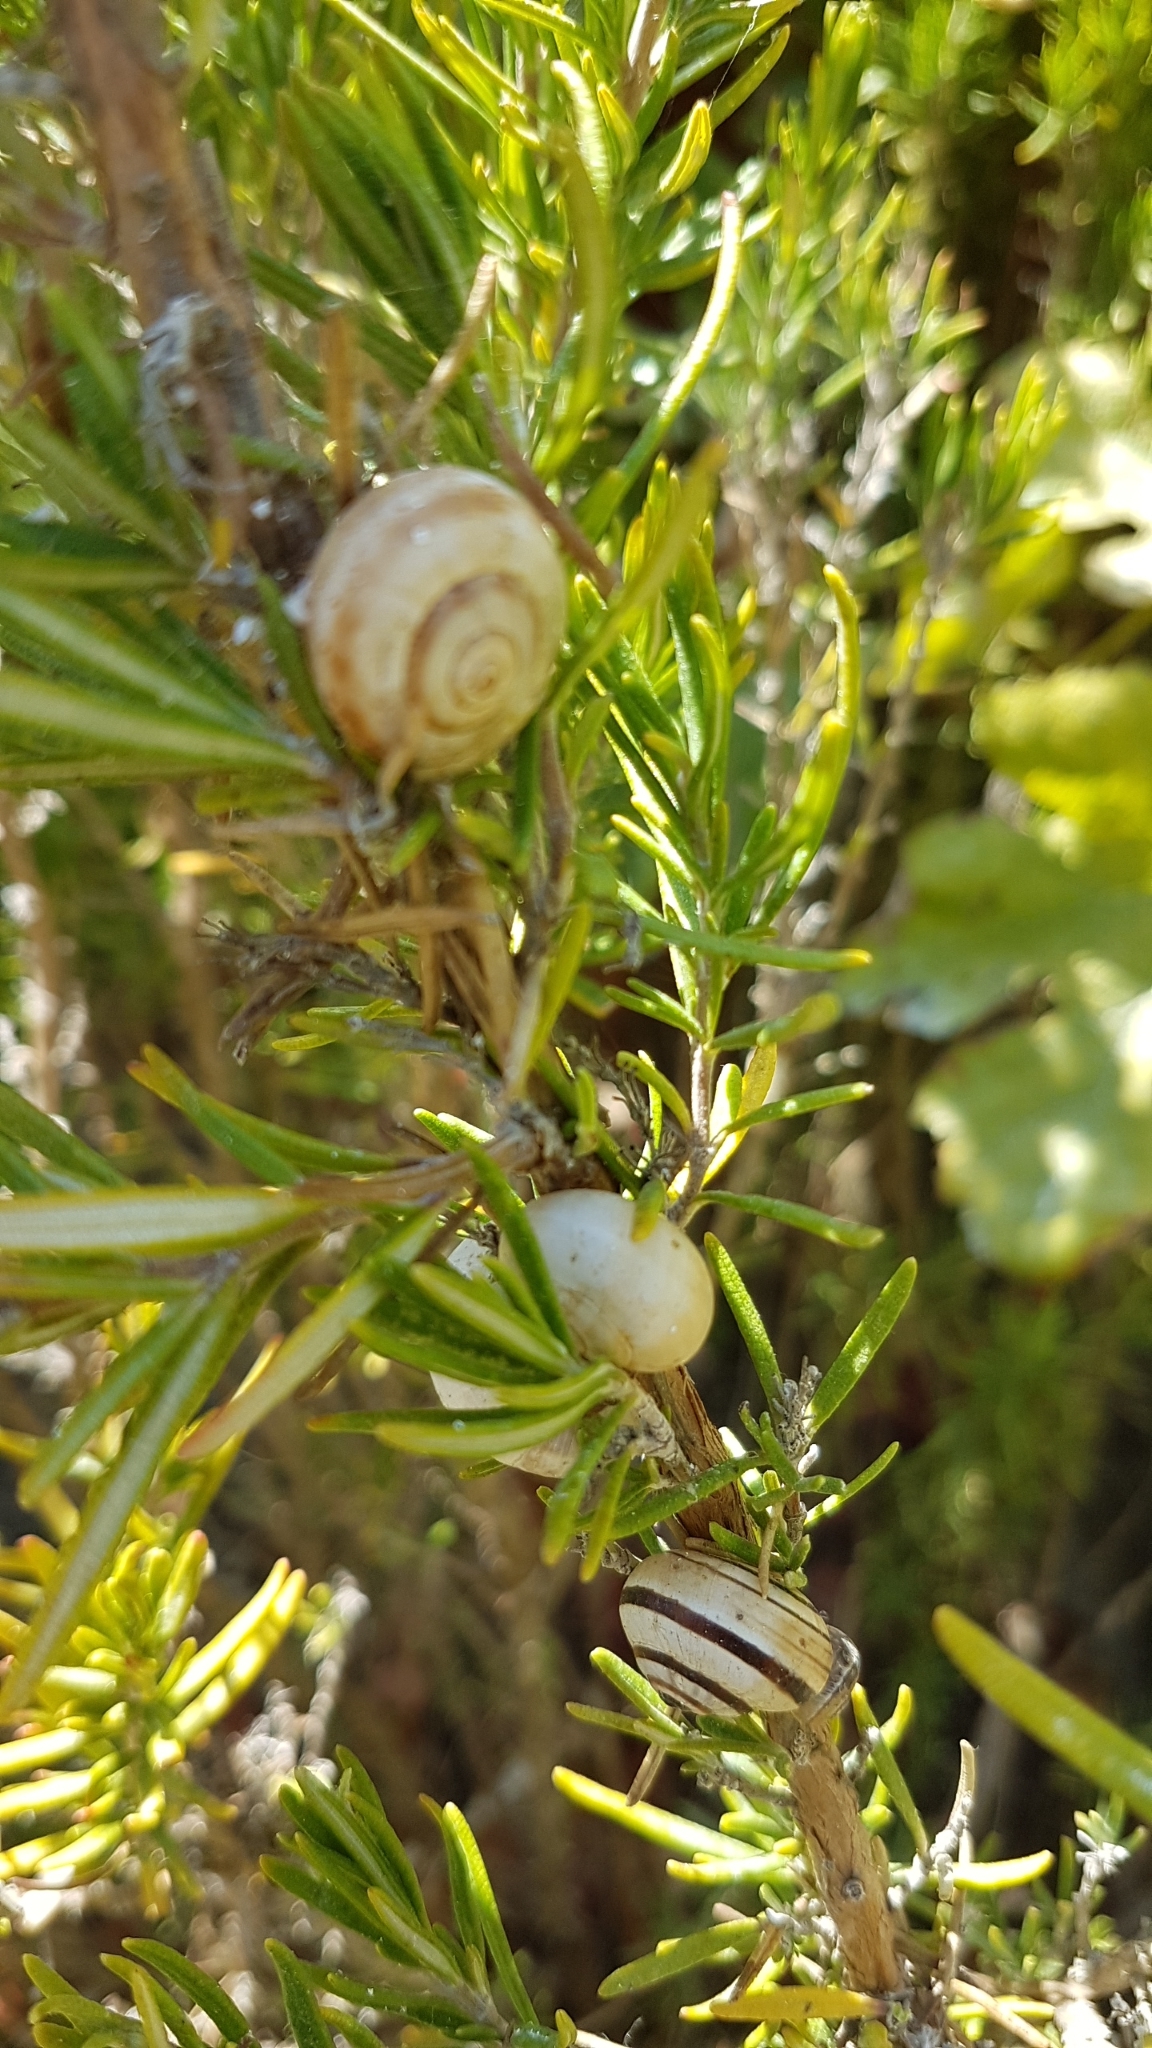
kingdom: Animalia
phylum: Mollusca
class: Gastropoda
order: Stylommatophora
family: Helicidae
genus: Theba
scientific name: Theba pisana
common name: White snail
